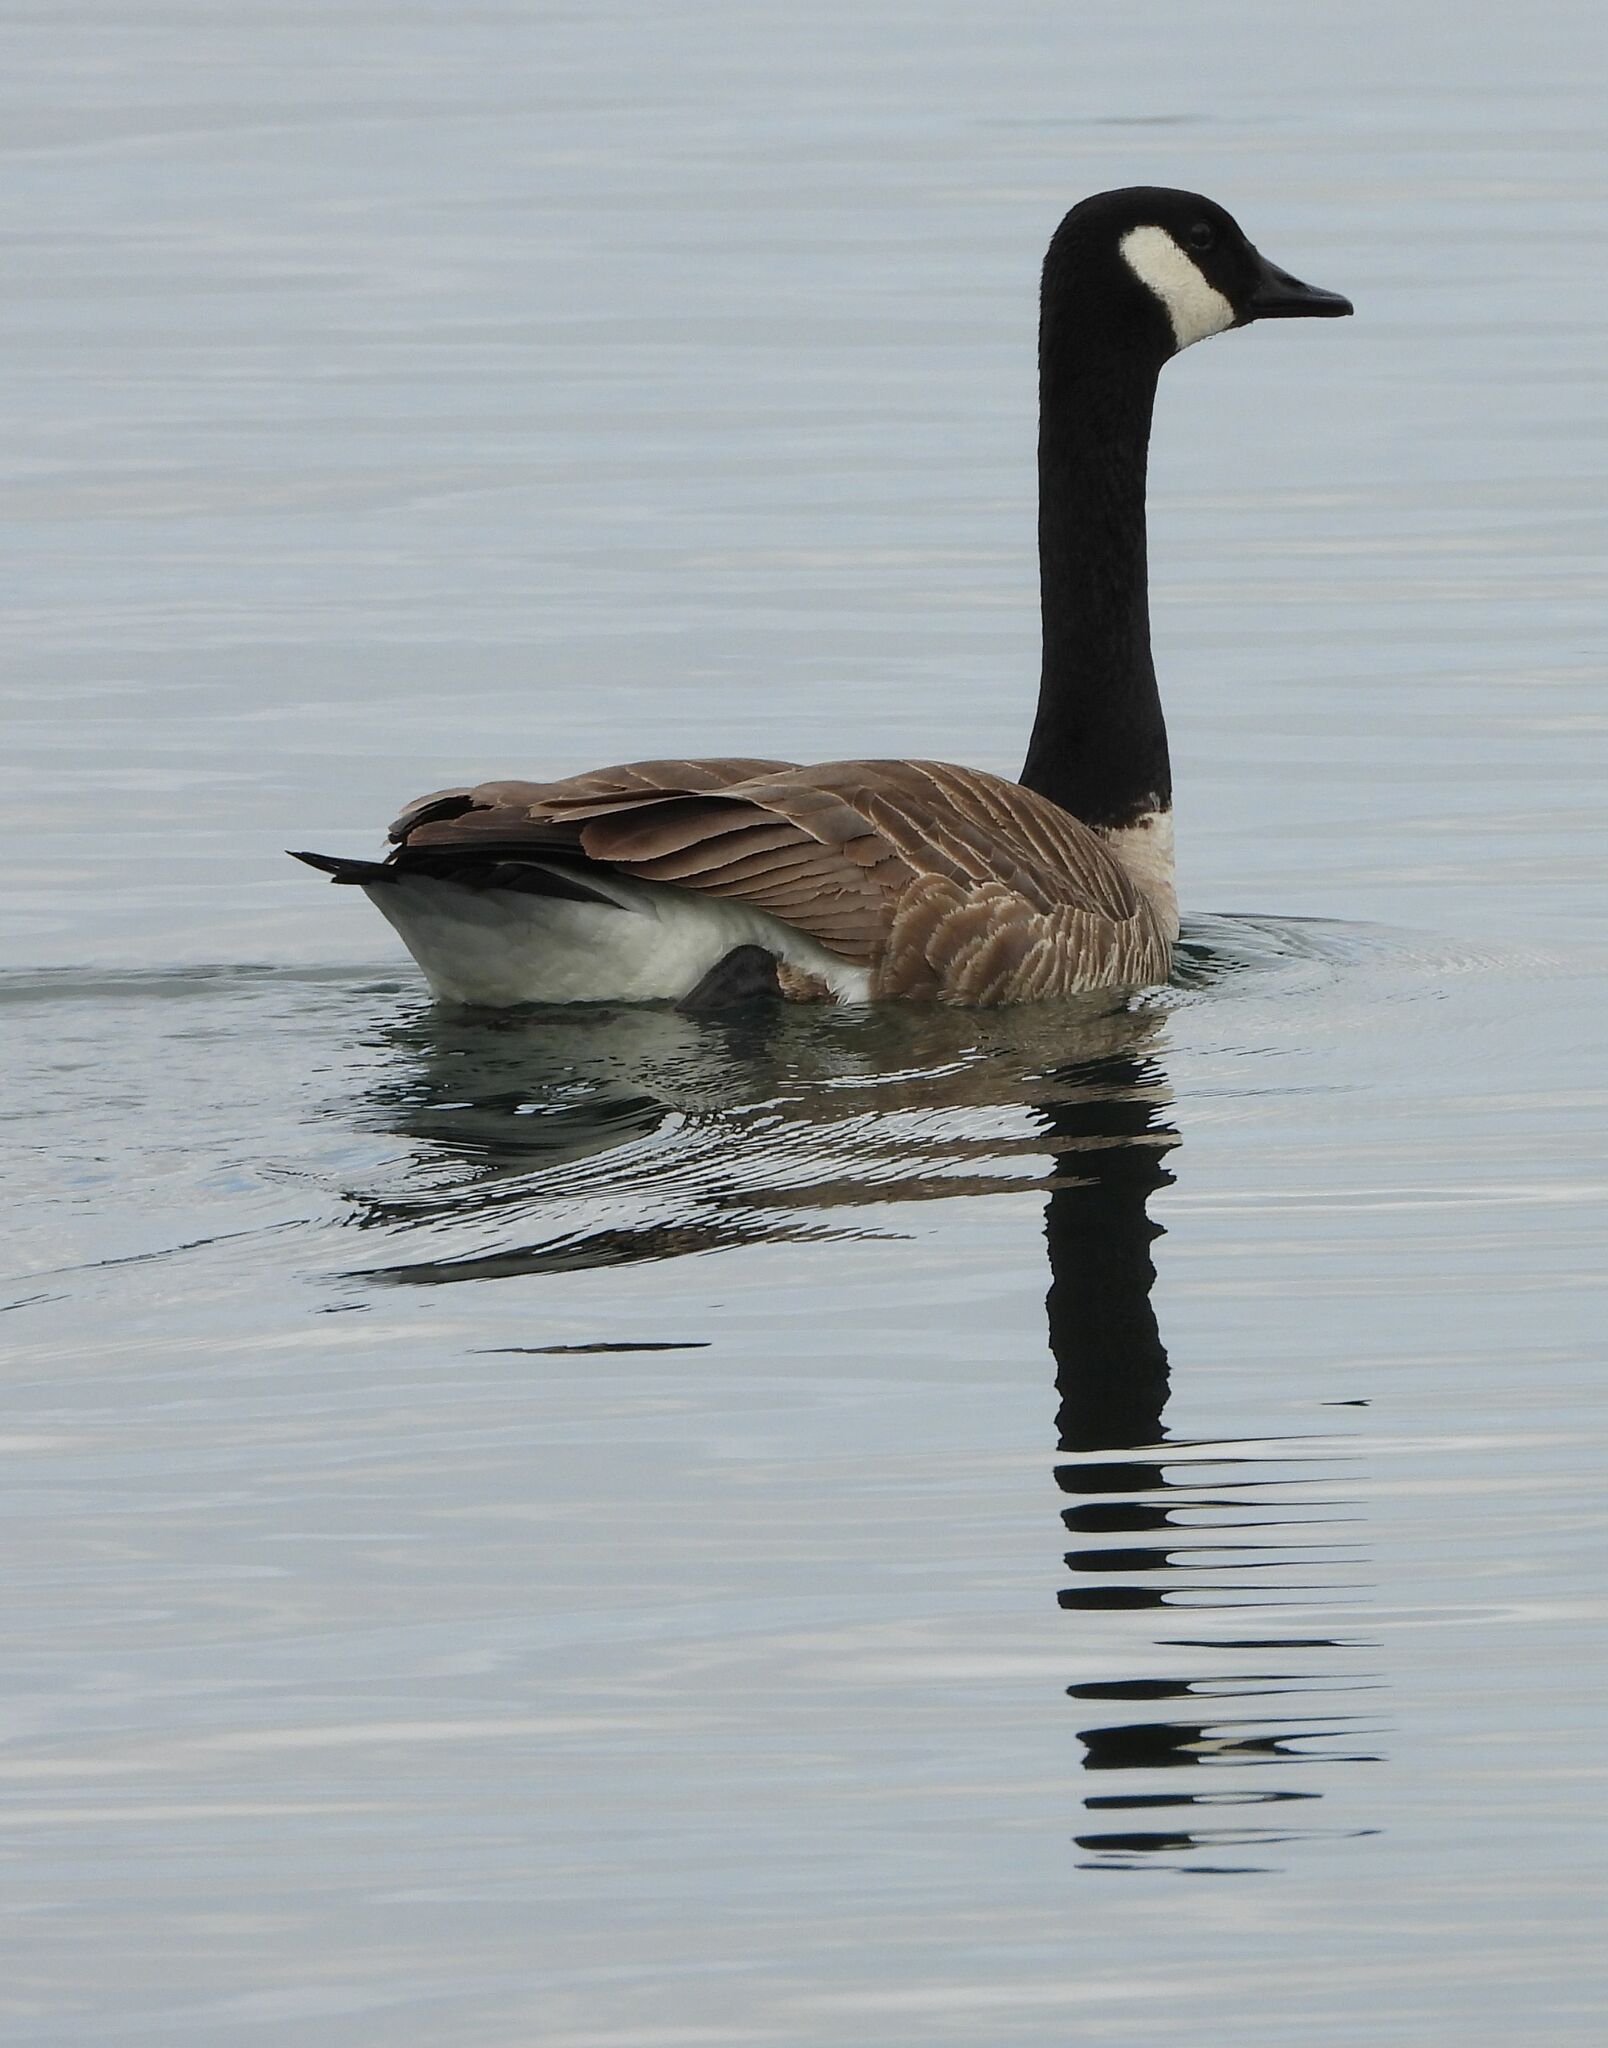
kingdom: Animalia
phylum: Chordata
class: Aves
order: Anseriformes
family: Anatidae
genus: Branta
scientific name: Branta canadensis
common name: Canada goose
